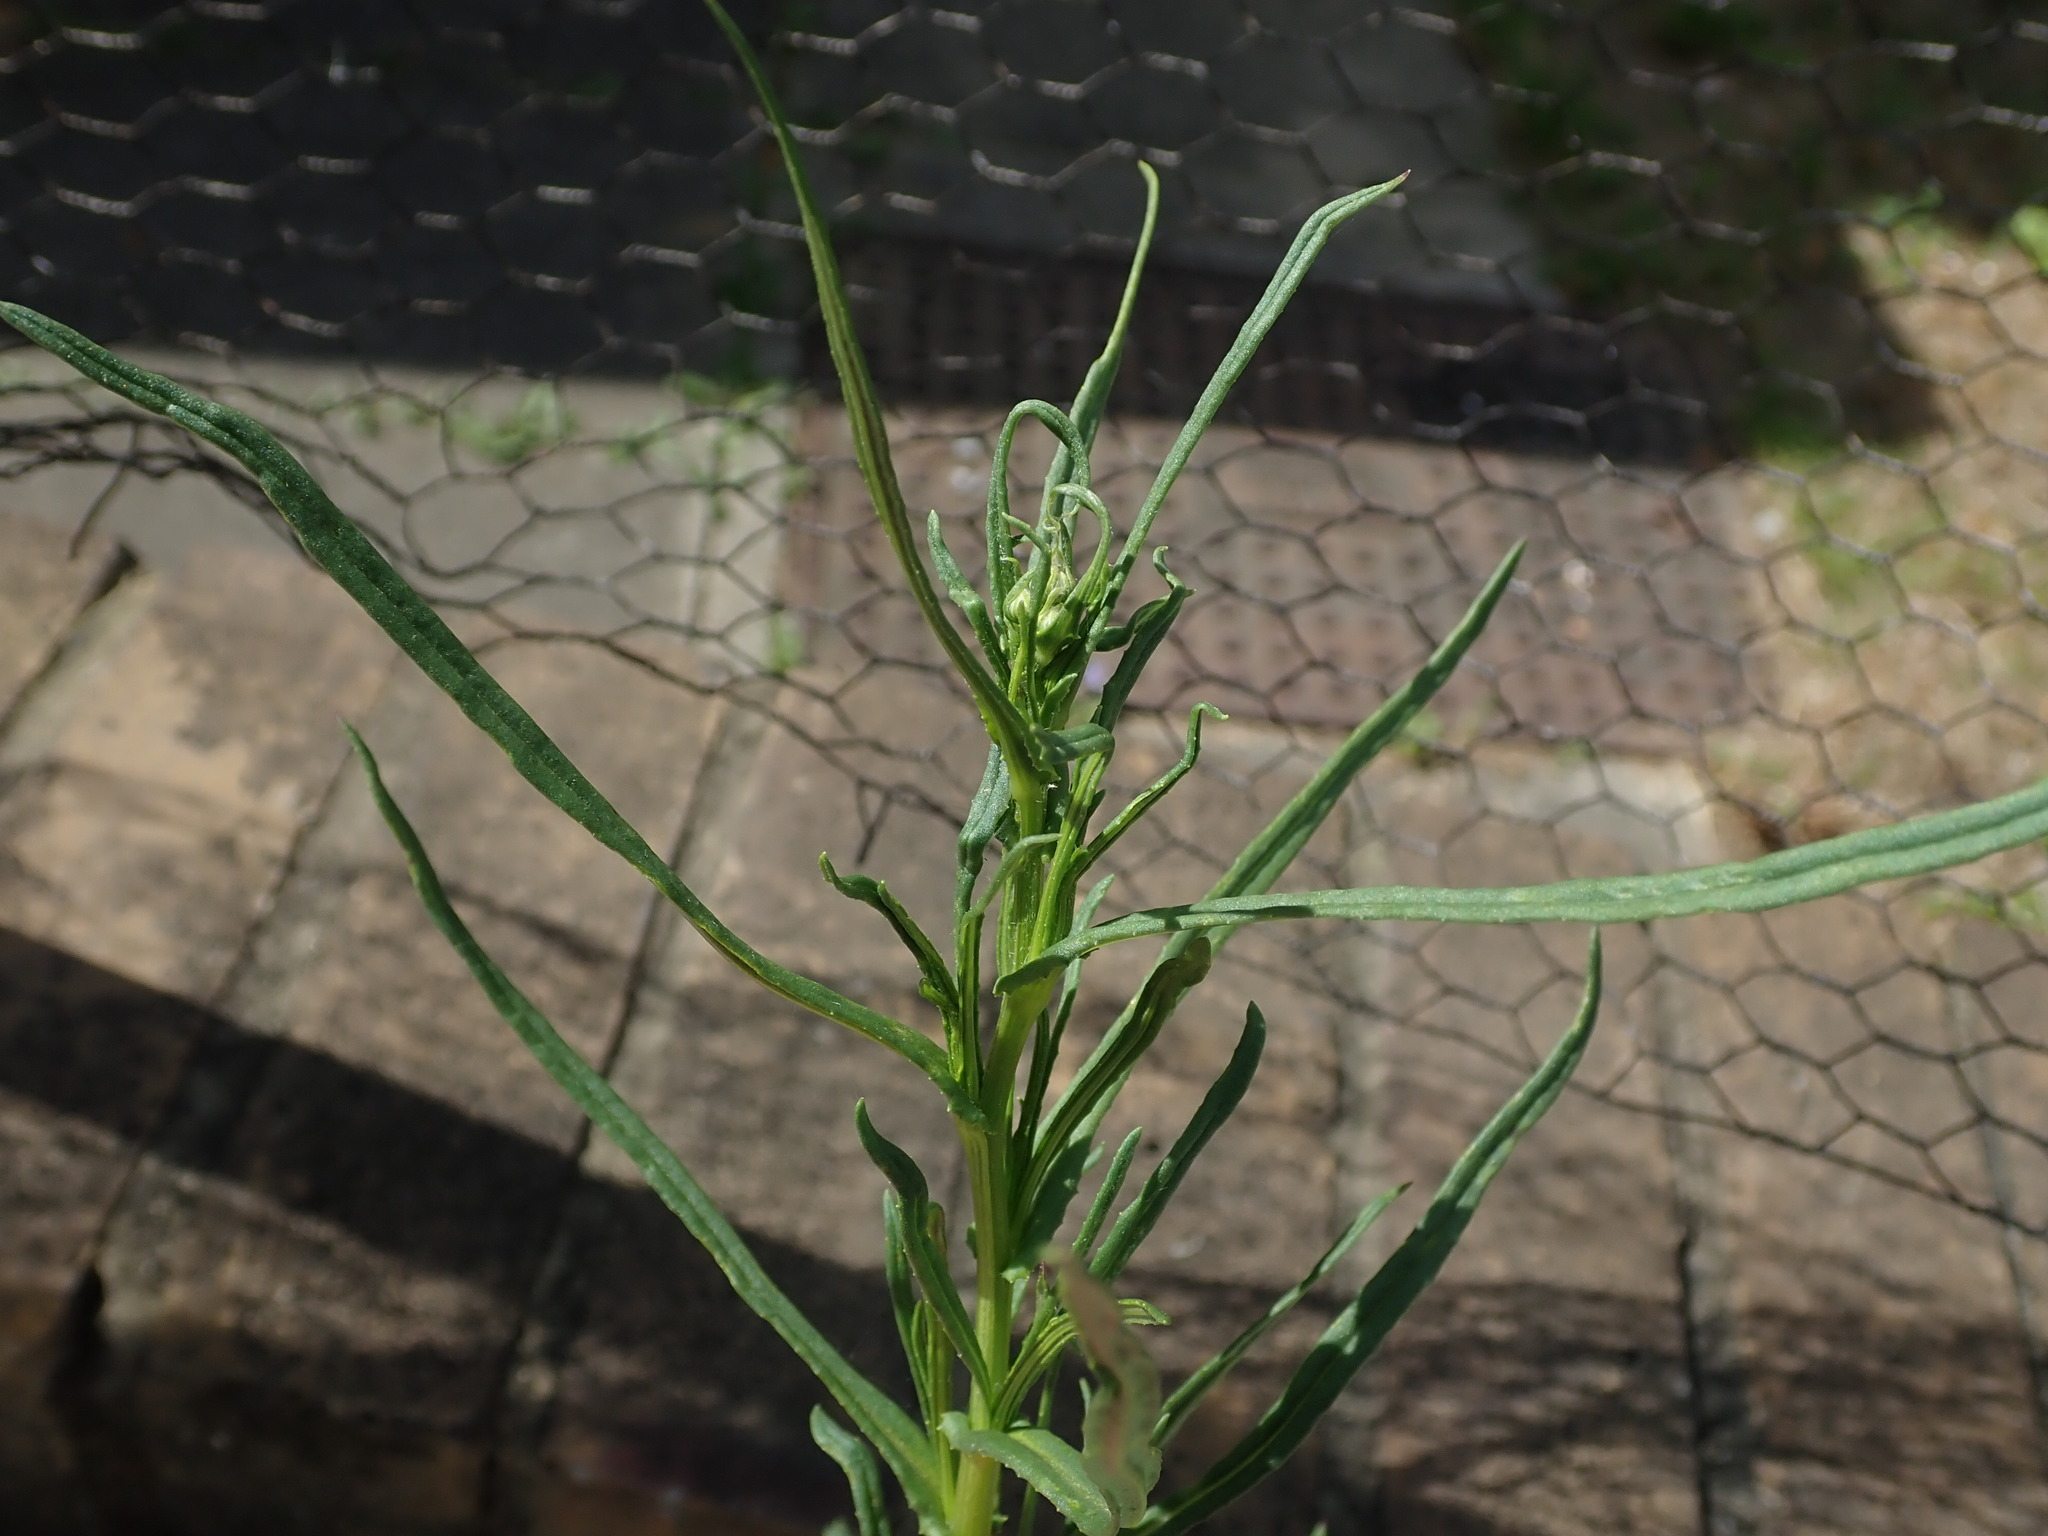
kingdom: Plantae
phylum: Tracheophyta
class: Magnoliopsida
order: Asterales
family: Asteraceae
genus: Senecio
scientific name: Senecio inaequidens
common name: Narrow-leaved ragwort
